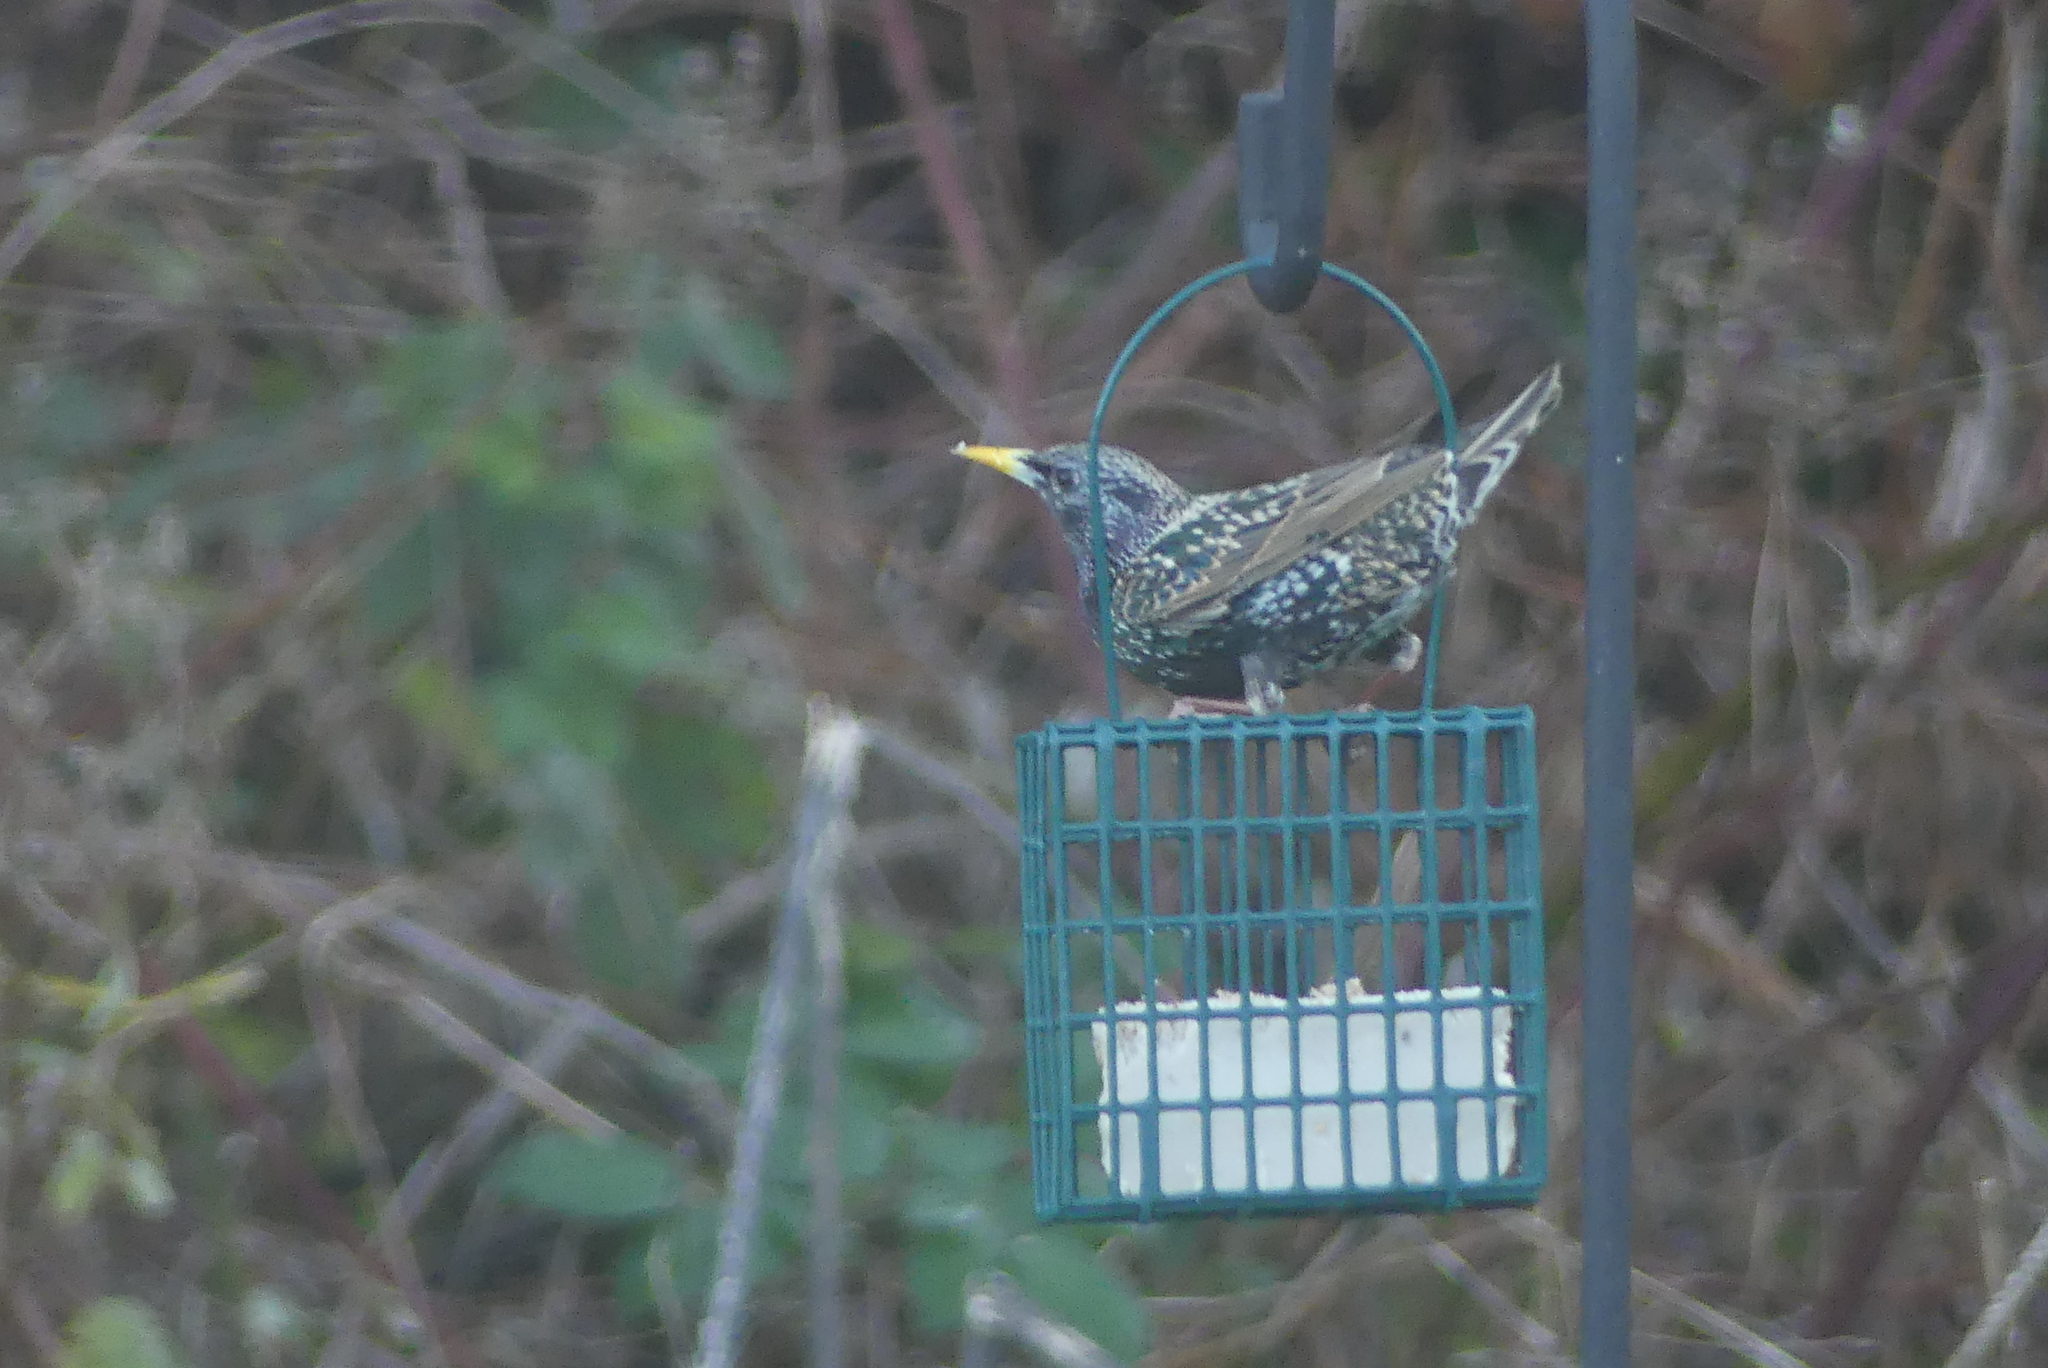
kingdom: Animalia
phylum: Chordata
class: Aves
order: Passeriformes
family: Sturnidae
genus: Sturnus
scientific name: Sturnus vulgaris
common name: Common starling
